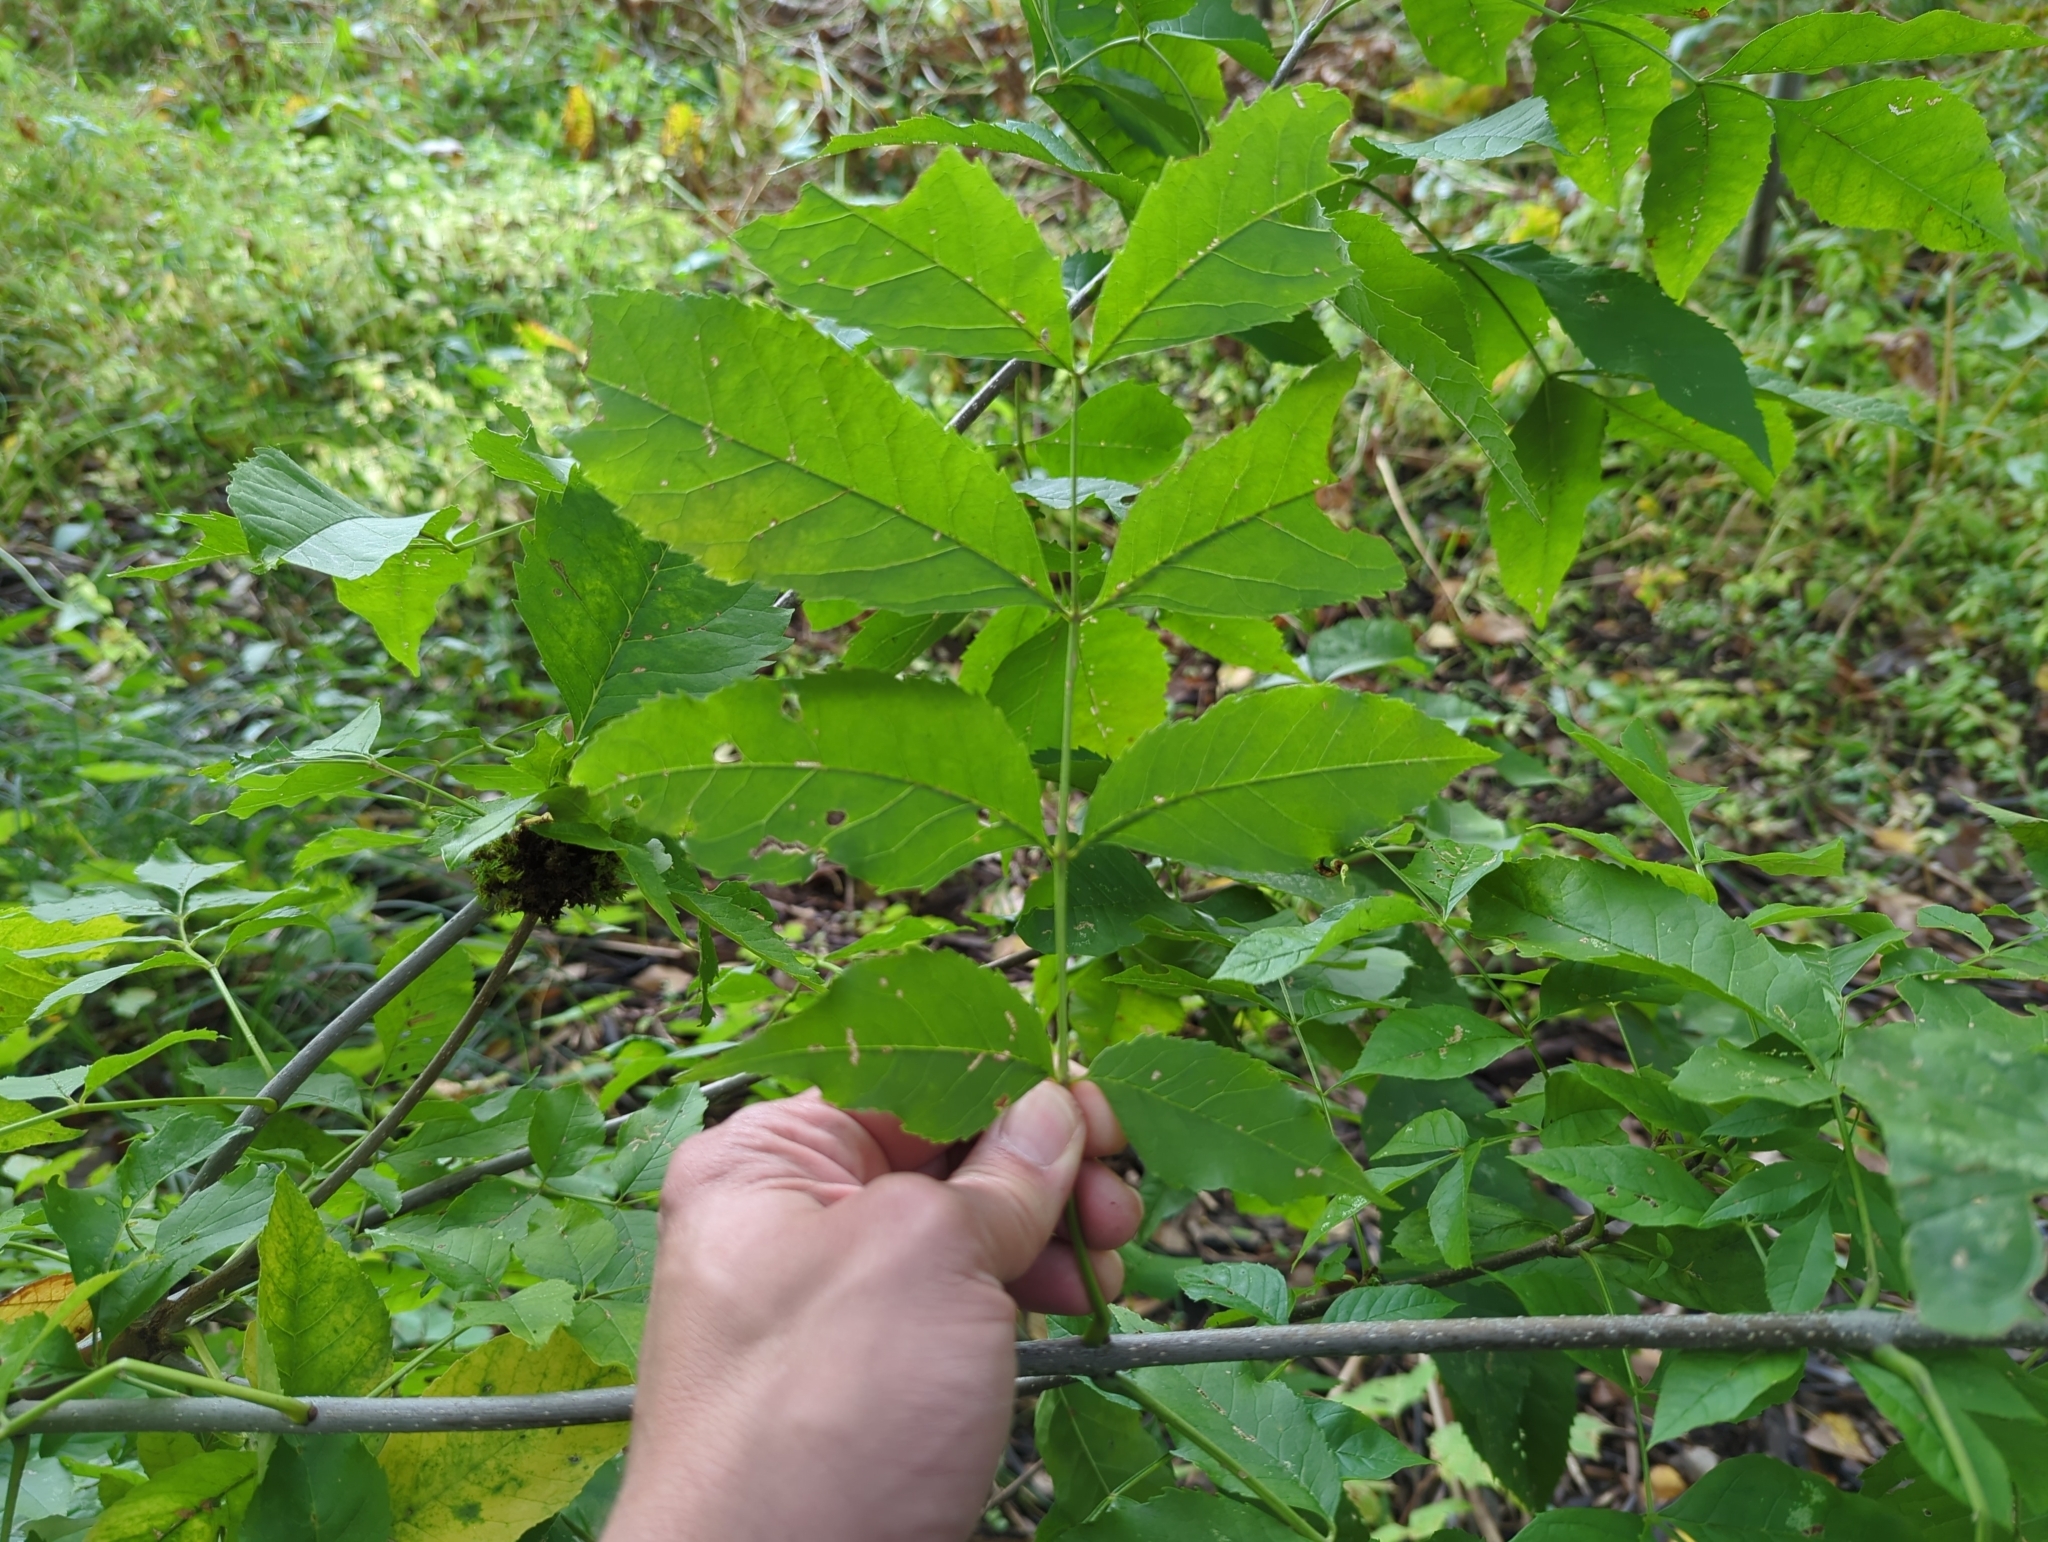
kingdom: Plantae
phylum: Tracheophyta
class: Magnoliopsida
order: Lamiales
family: Oleaceae
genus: Fraxinus
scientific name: Fraxinus pennsylvanica
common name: Green ash
